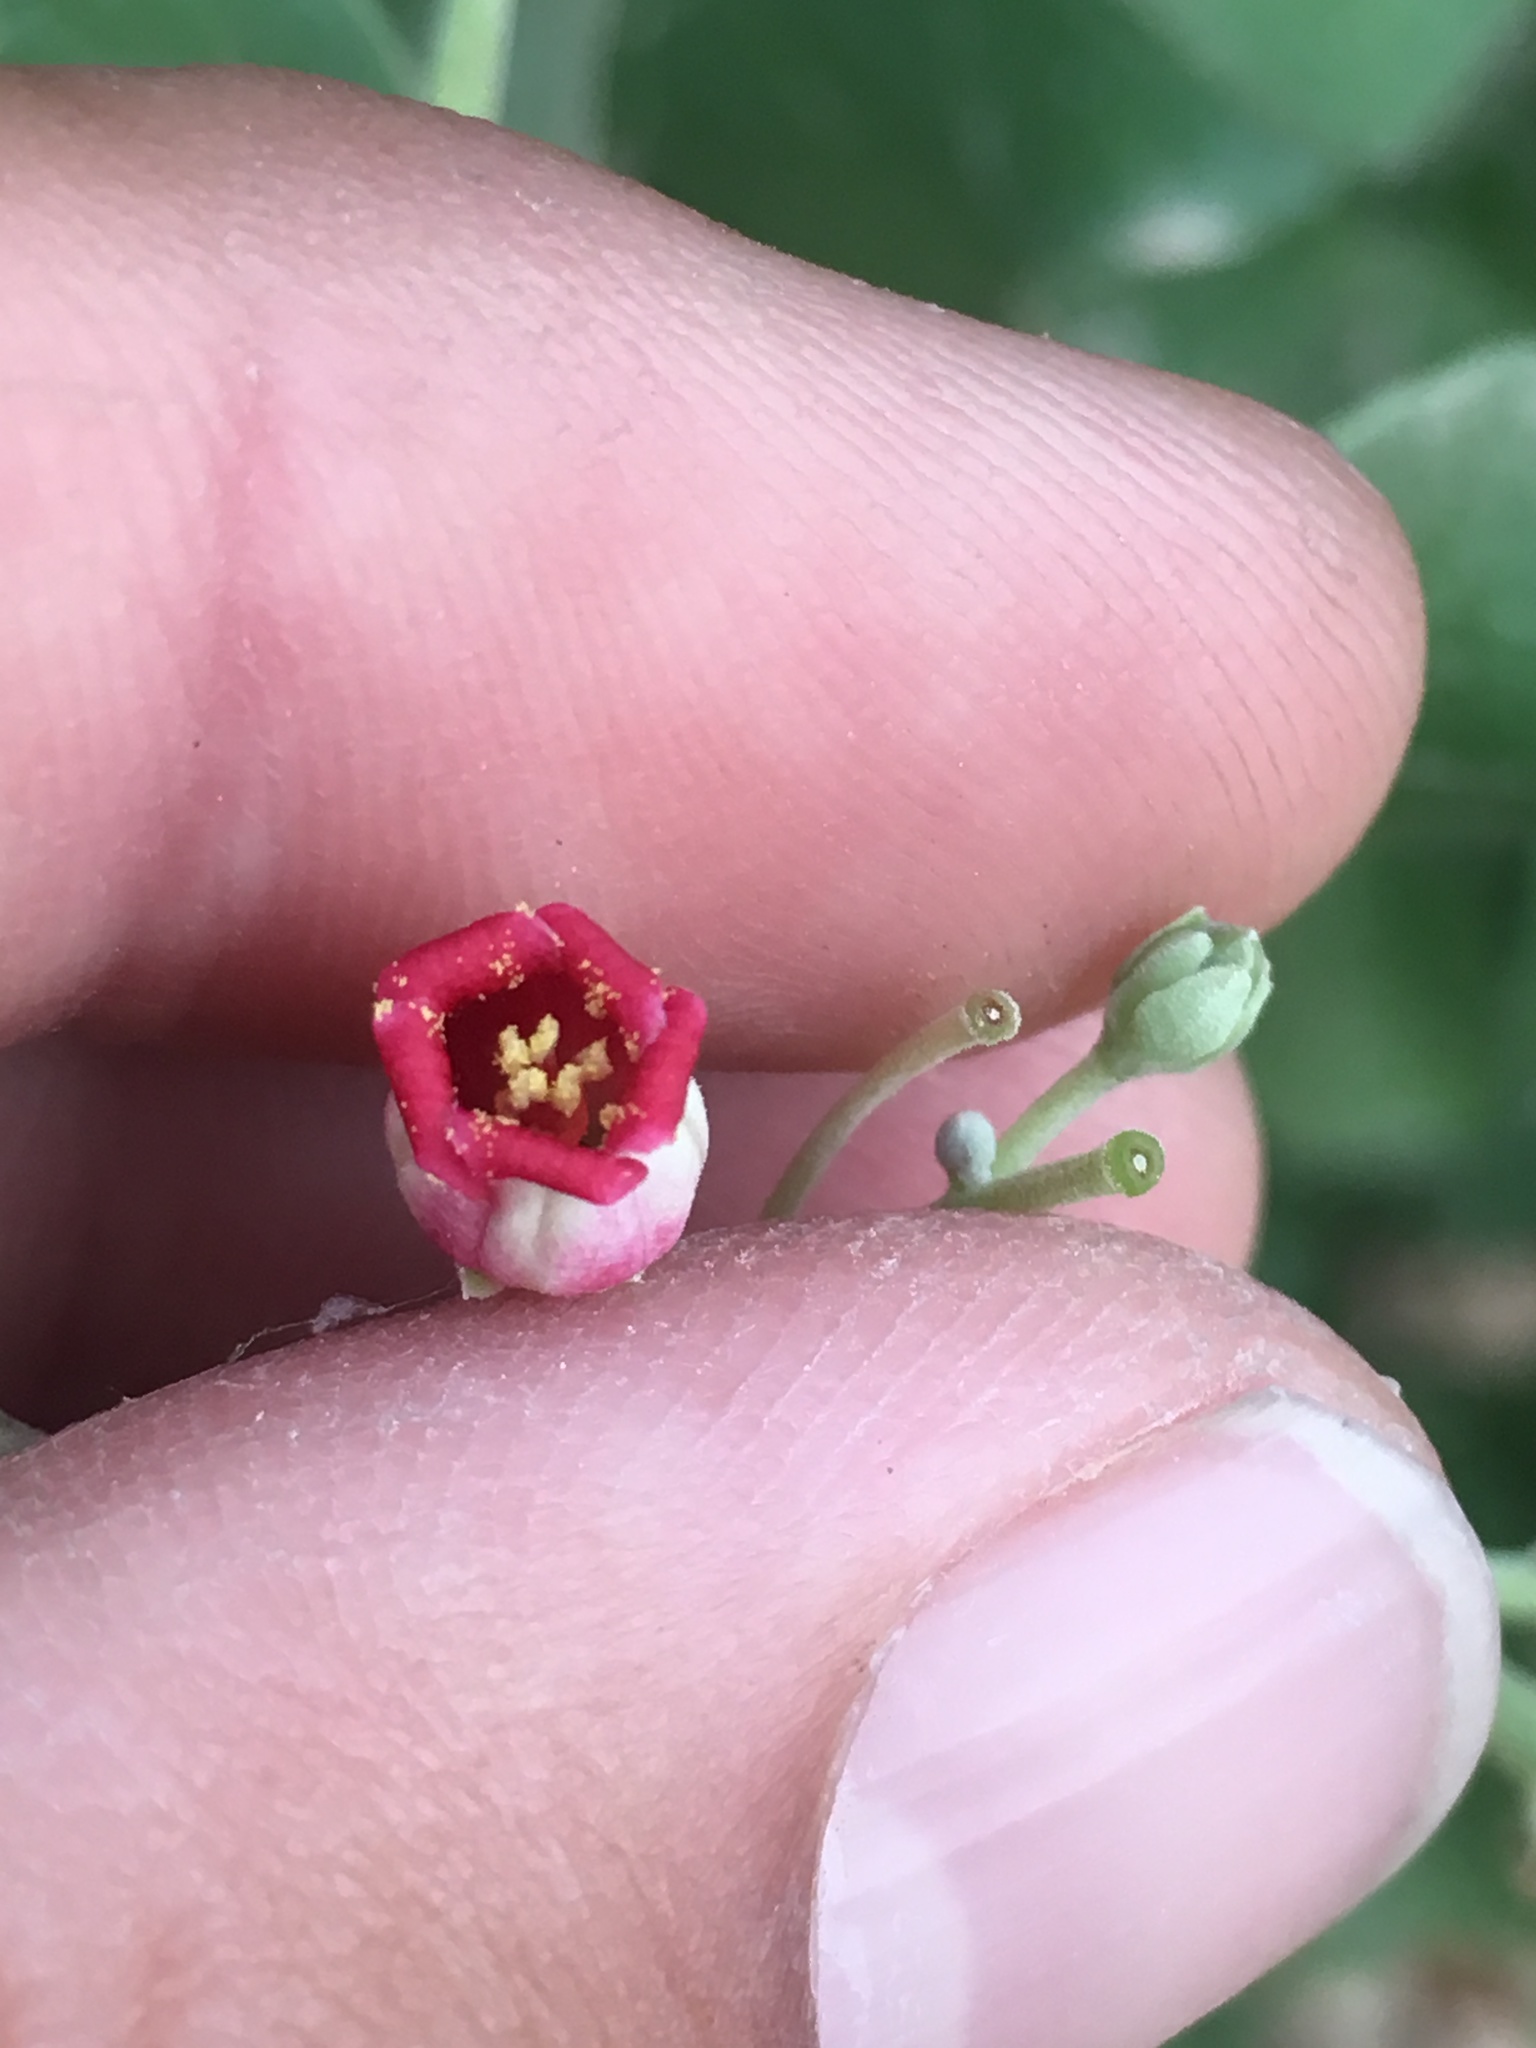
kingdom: Plantae
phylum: Tracheophyta
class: Magnoliopsida
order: Malpighiales
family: Euphorbiaceae
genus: Jatropha
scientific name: Jatropha cinerea
